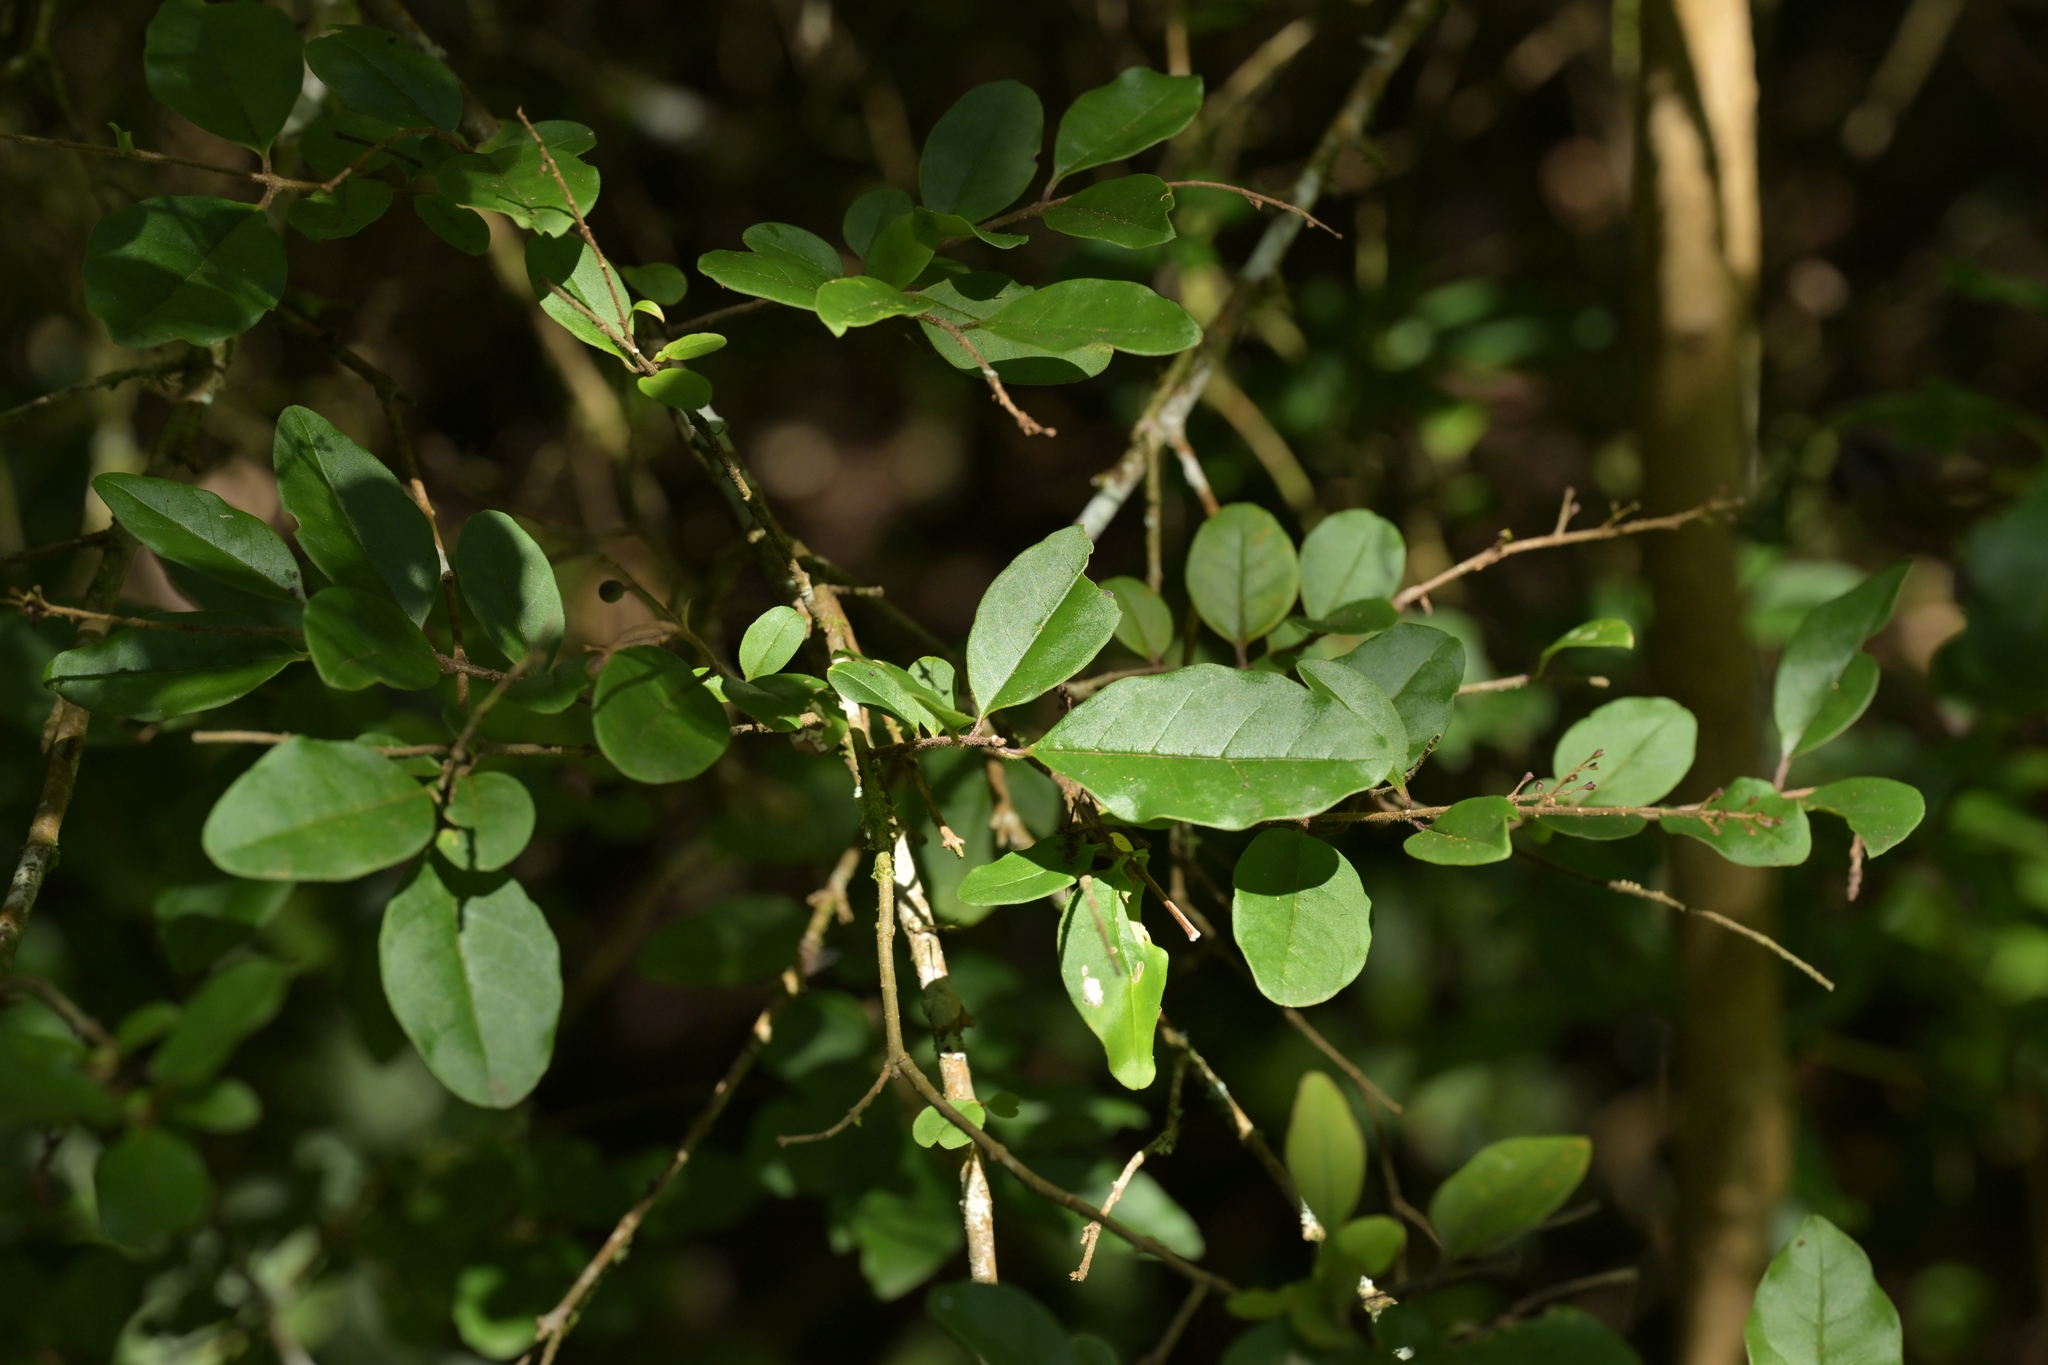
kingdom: Plantae
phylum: Tracheophyta
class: Magnoliopsida
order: Lamiales
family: Oleaceae
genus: Ligustrum
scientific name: Ligustrum sinense
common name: Chinese privet
